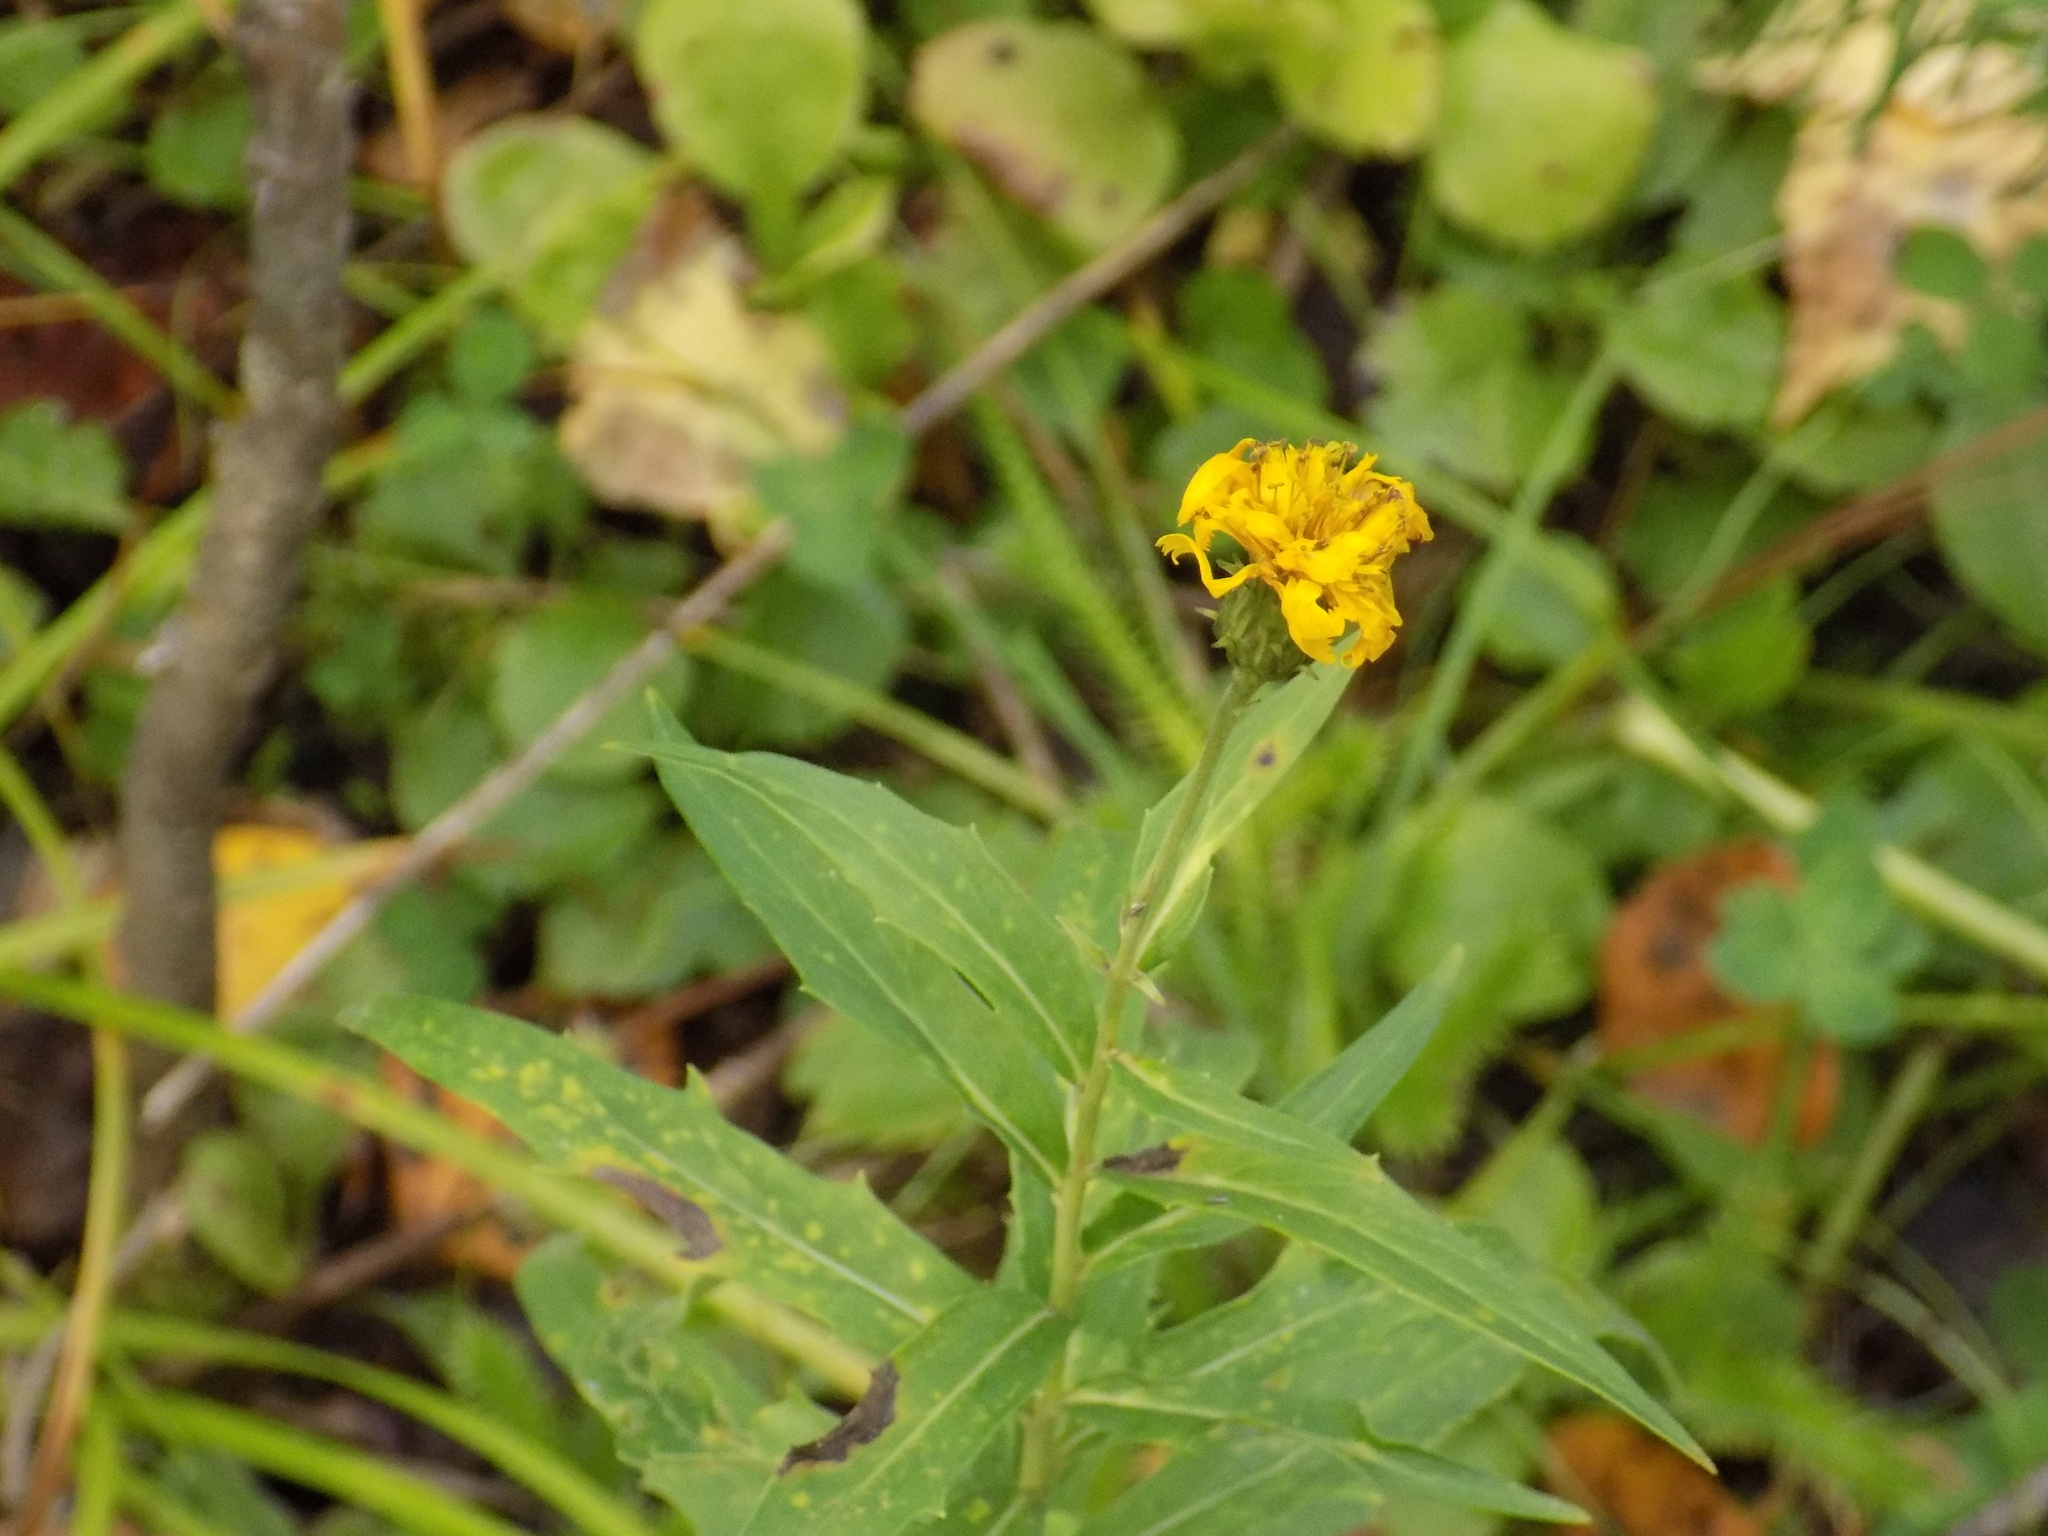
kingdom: Plantae
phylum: Tracheophyta
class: Magnoliopsida
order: Asterales
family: Asteraceae
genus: Hieracium
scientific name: Hieracium umbellatum
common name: Northern hawkweed
